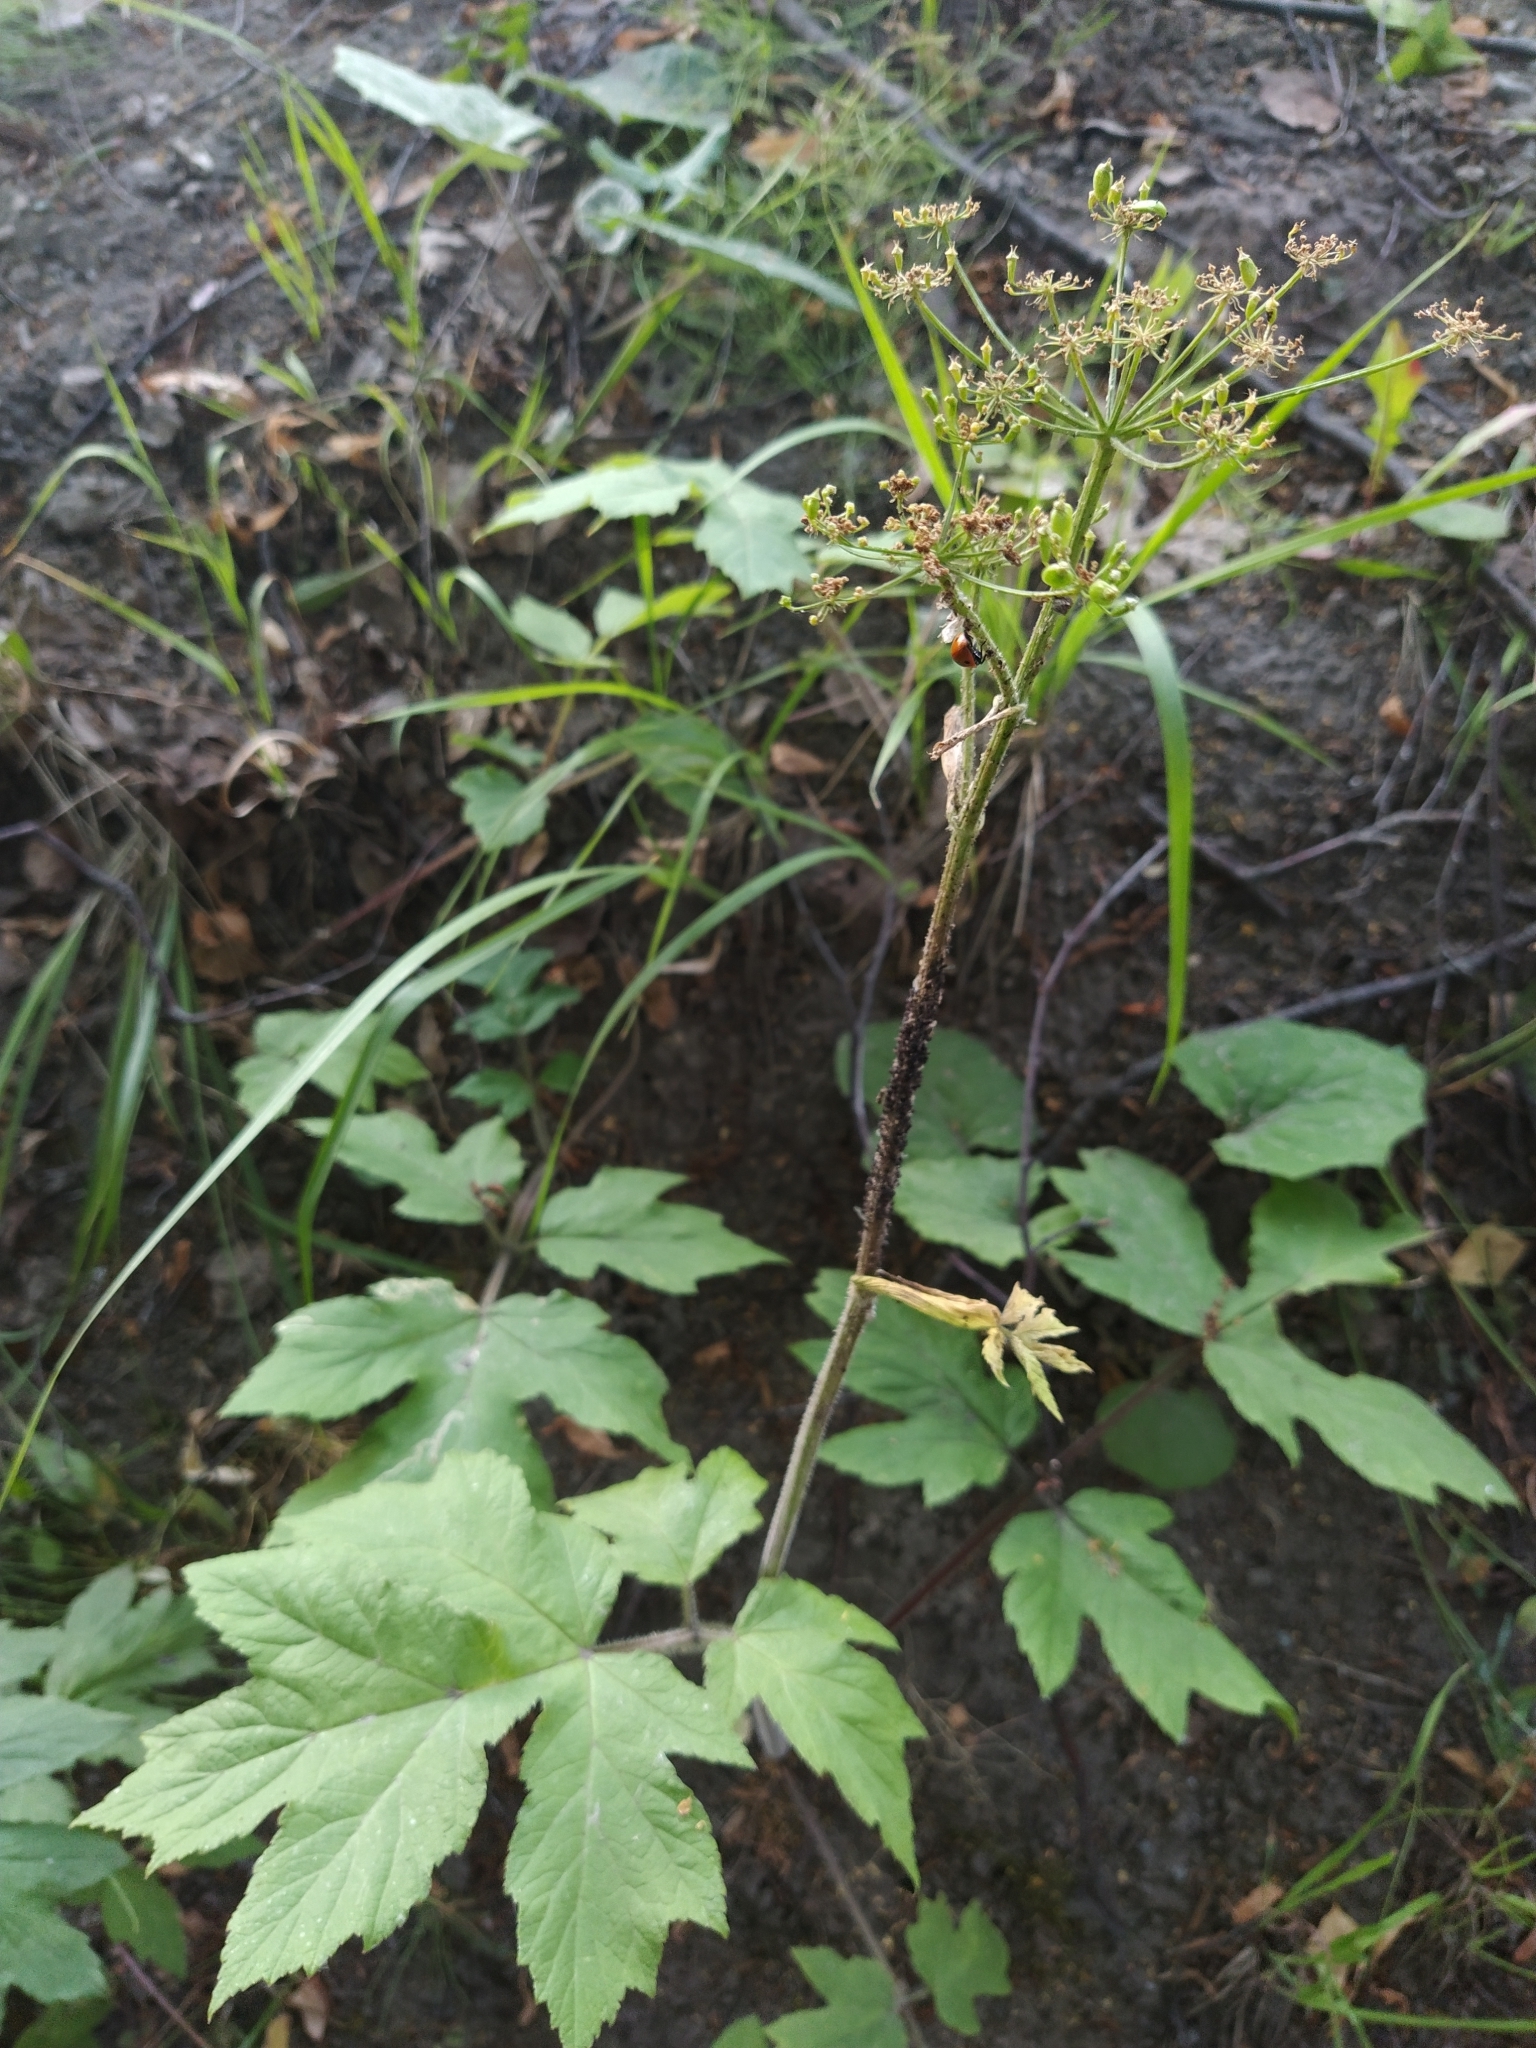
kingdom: Plantae
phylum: Tracheophyta
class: Magnoliopsida
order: Apiales
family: Apiaceae
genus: Heracleum
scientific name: Heracleum sphondylium
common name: Hogweed
